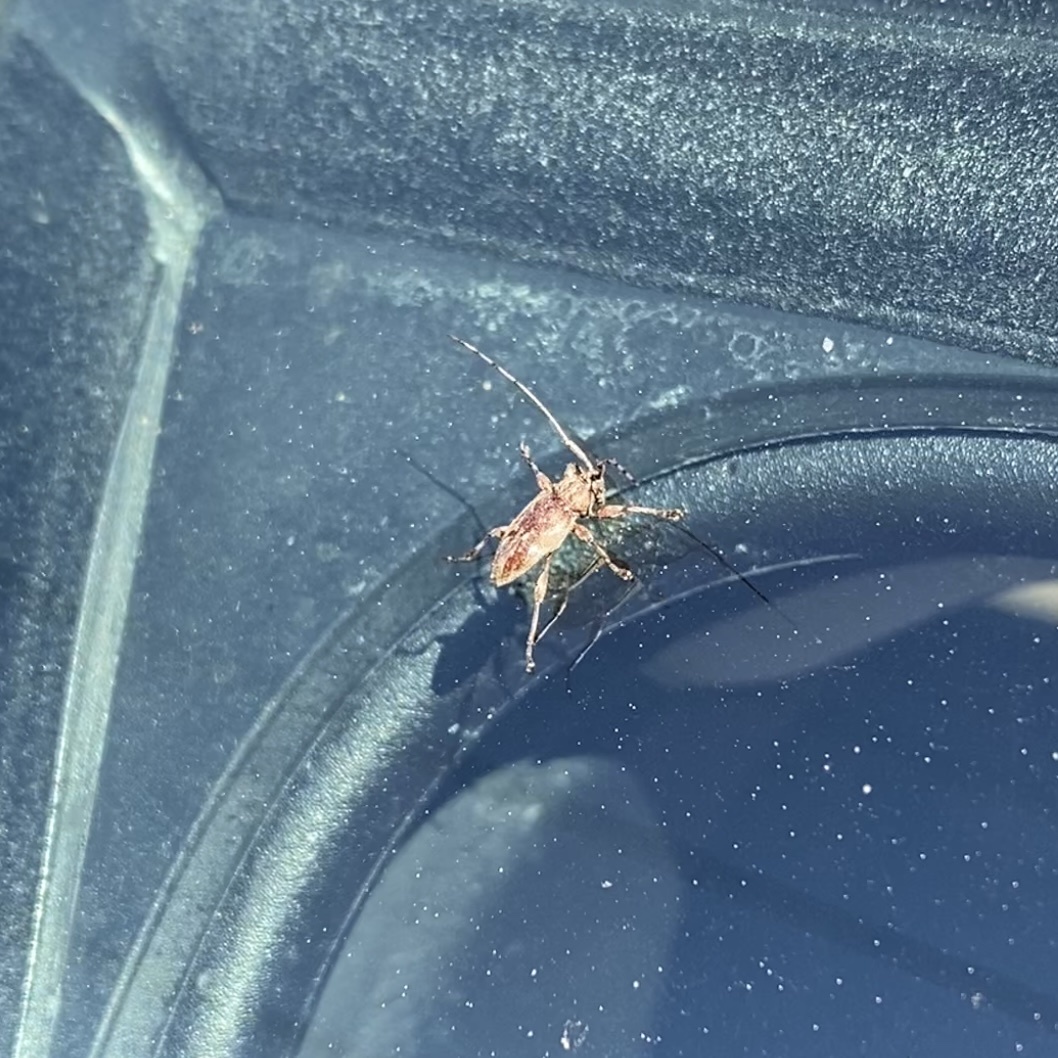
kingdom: Animalia
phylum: Arthropoda
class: Insecta
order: Coleoptera
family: Cerambycidae
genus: Atrypanius
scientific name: Atrypanius haldemani
